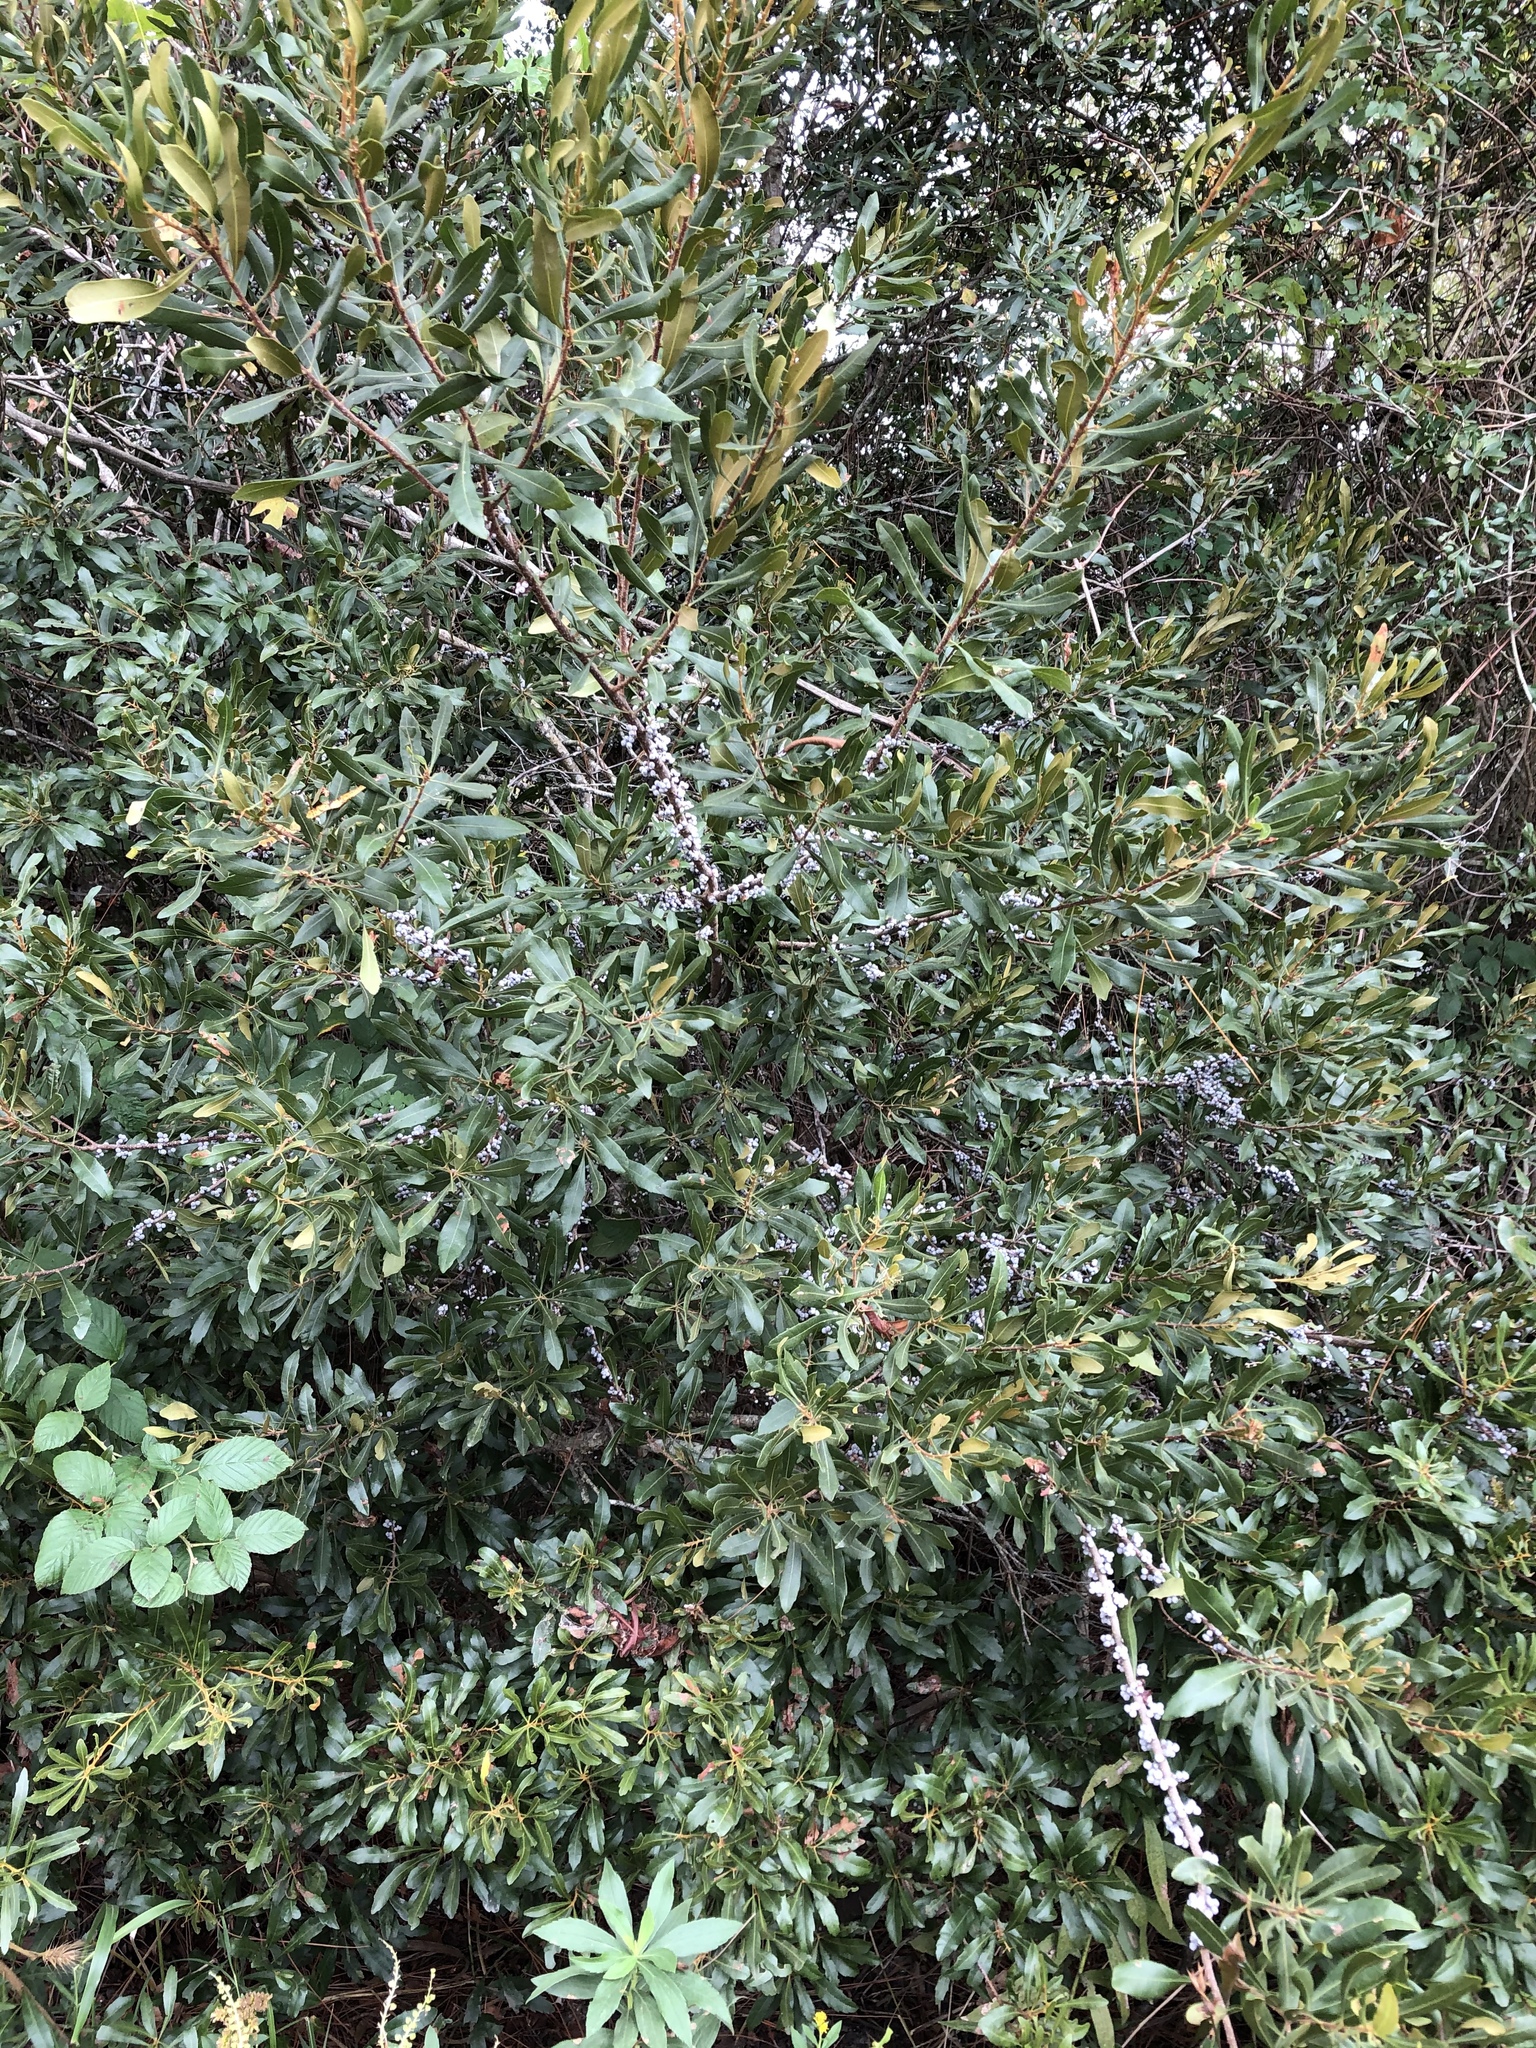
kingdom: Plantae
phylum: Tracheophyta
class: Magnoliopsida
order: Fagales
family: Myricaceae
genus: Morella
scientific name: Morella cerifera
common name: Wax myrtle
